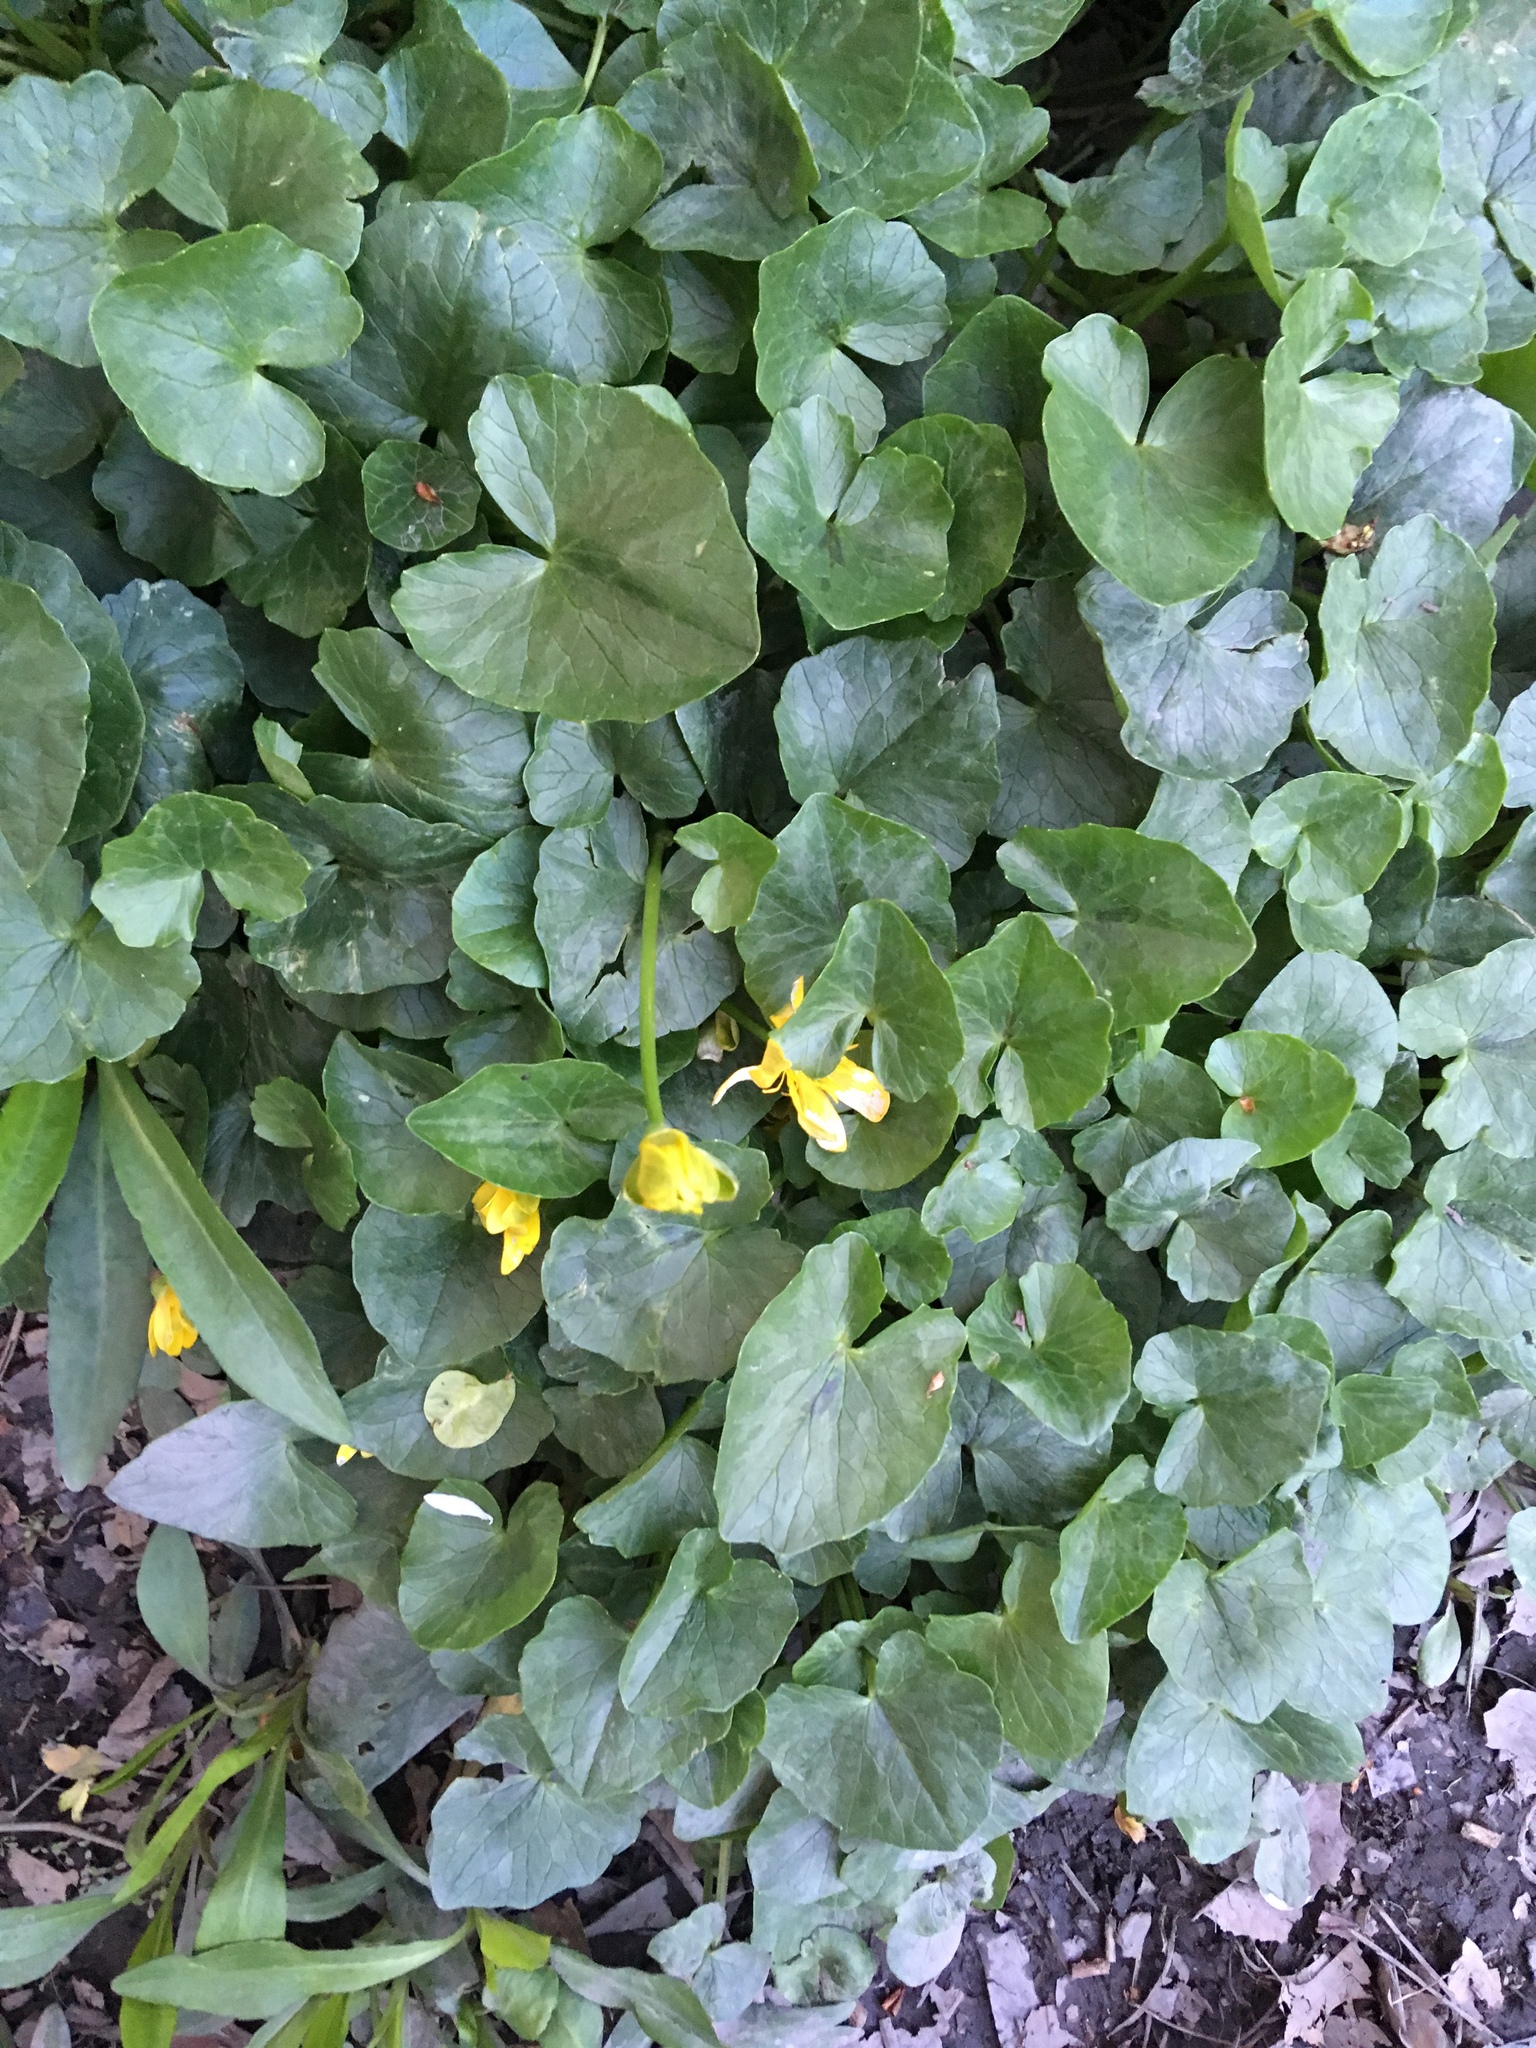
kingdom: Plantae
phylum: Tracheophyta
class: Magnoliopsida
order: Ranunculales
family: Ranunculaceae
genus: Ficaria
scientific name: Ficaria verna
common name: Lesser celandine
